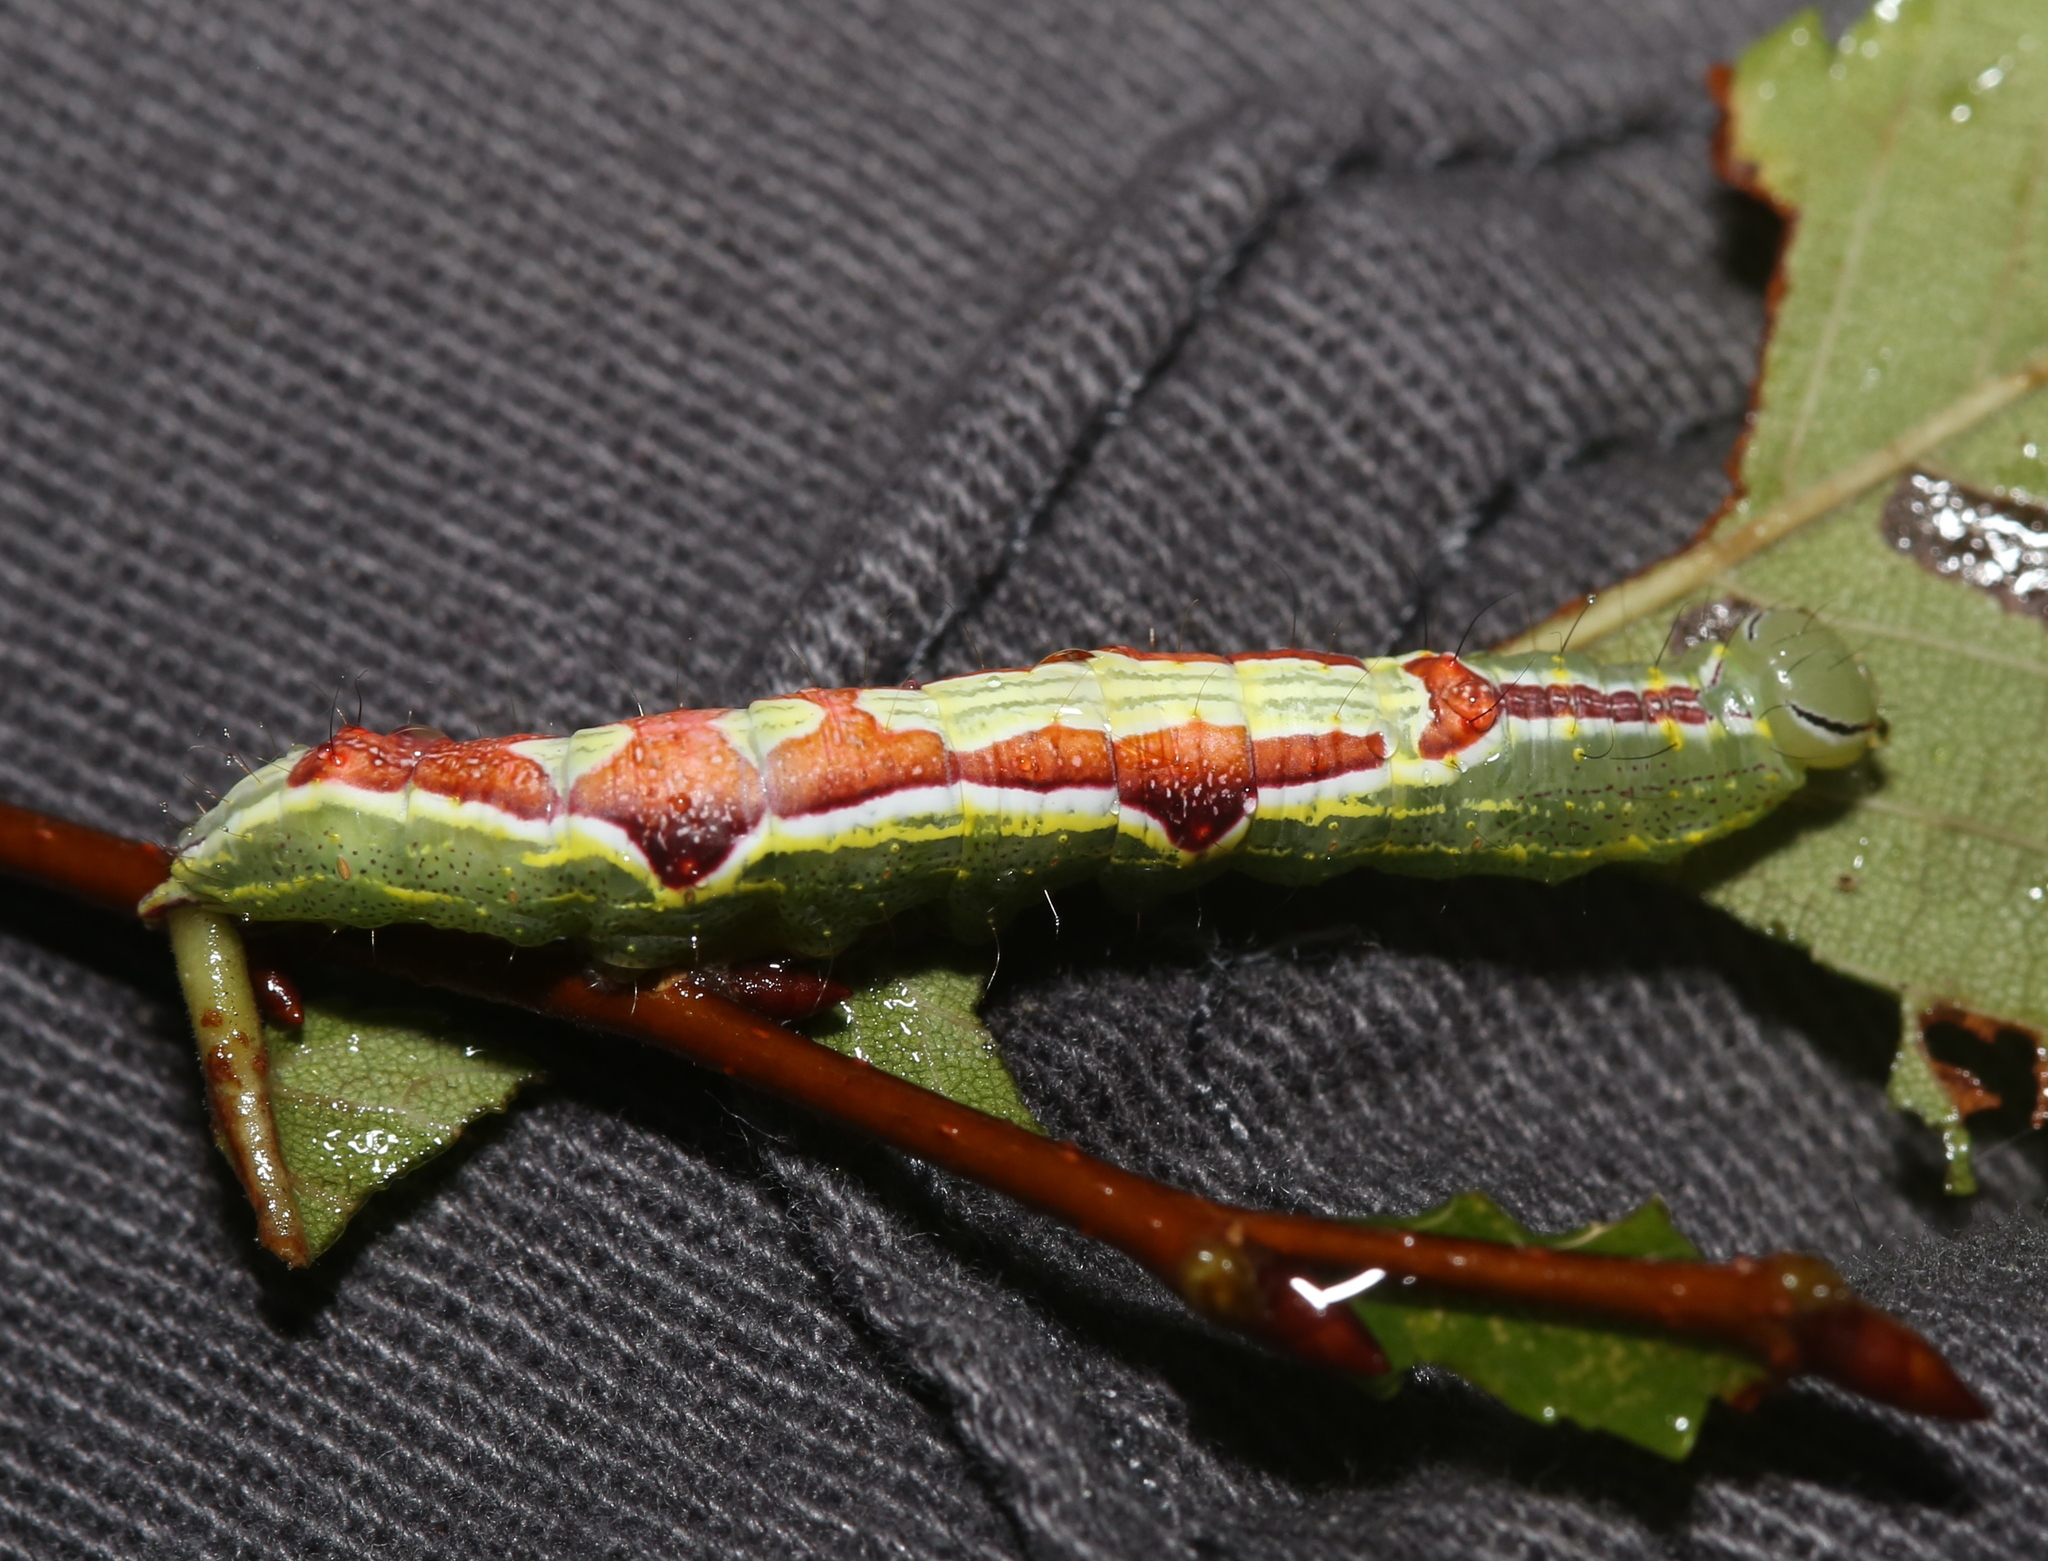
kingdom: Animalia
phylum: Arthropoda
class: Insecta
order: Lepidoptera
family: Notodontidae
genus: Lochmaeus
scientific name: Lochmaeus bilineata
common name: Double-lined prominent
